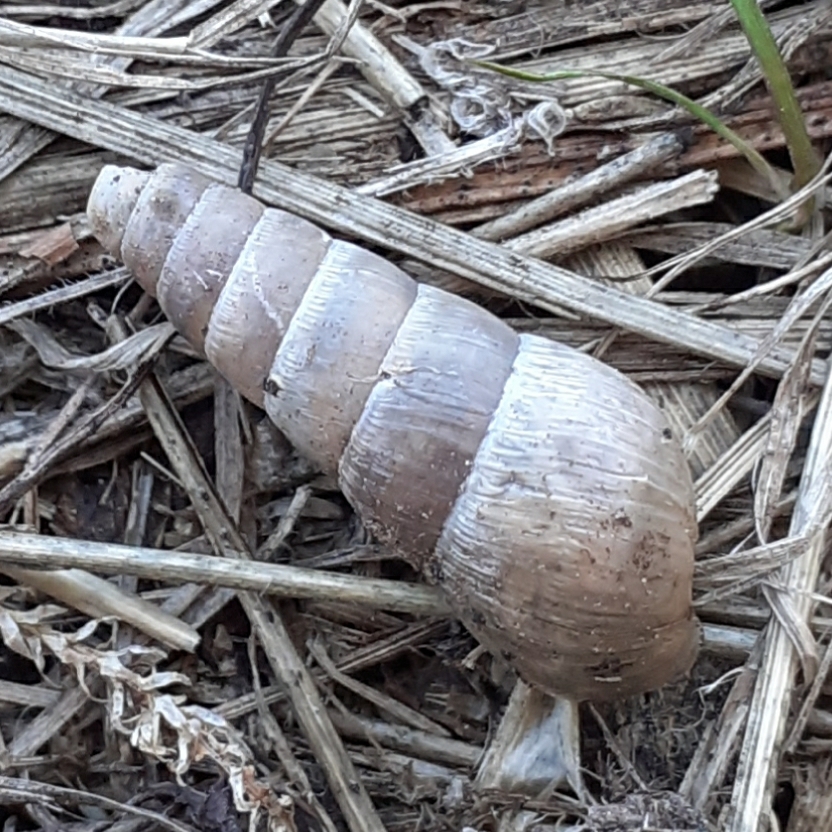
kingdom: Animalia
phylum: Mollusca
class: Gastropoda
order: Stylommatophora
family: Achatinidae
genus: Rumina
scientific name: Rumina decollata
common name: Decollate snail
